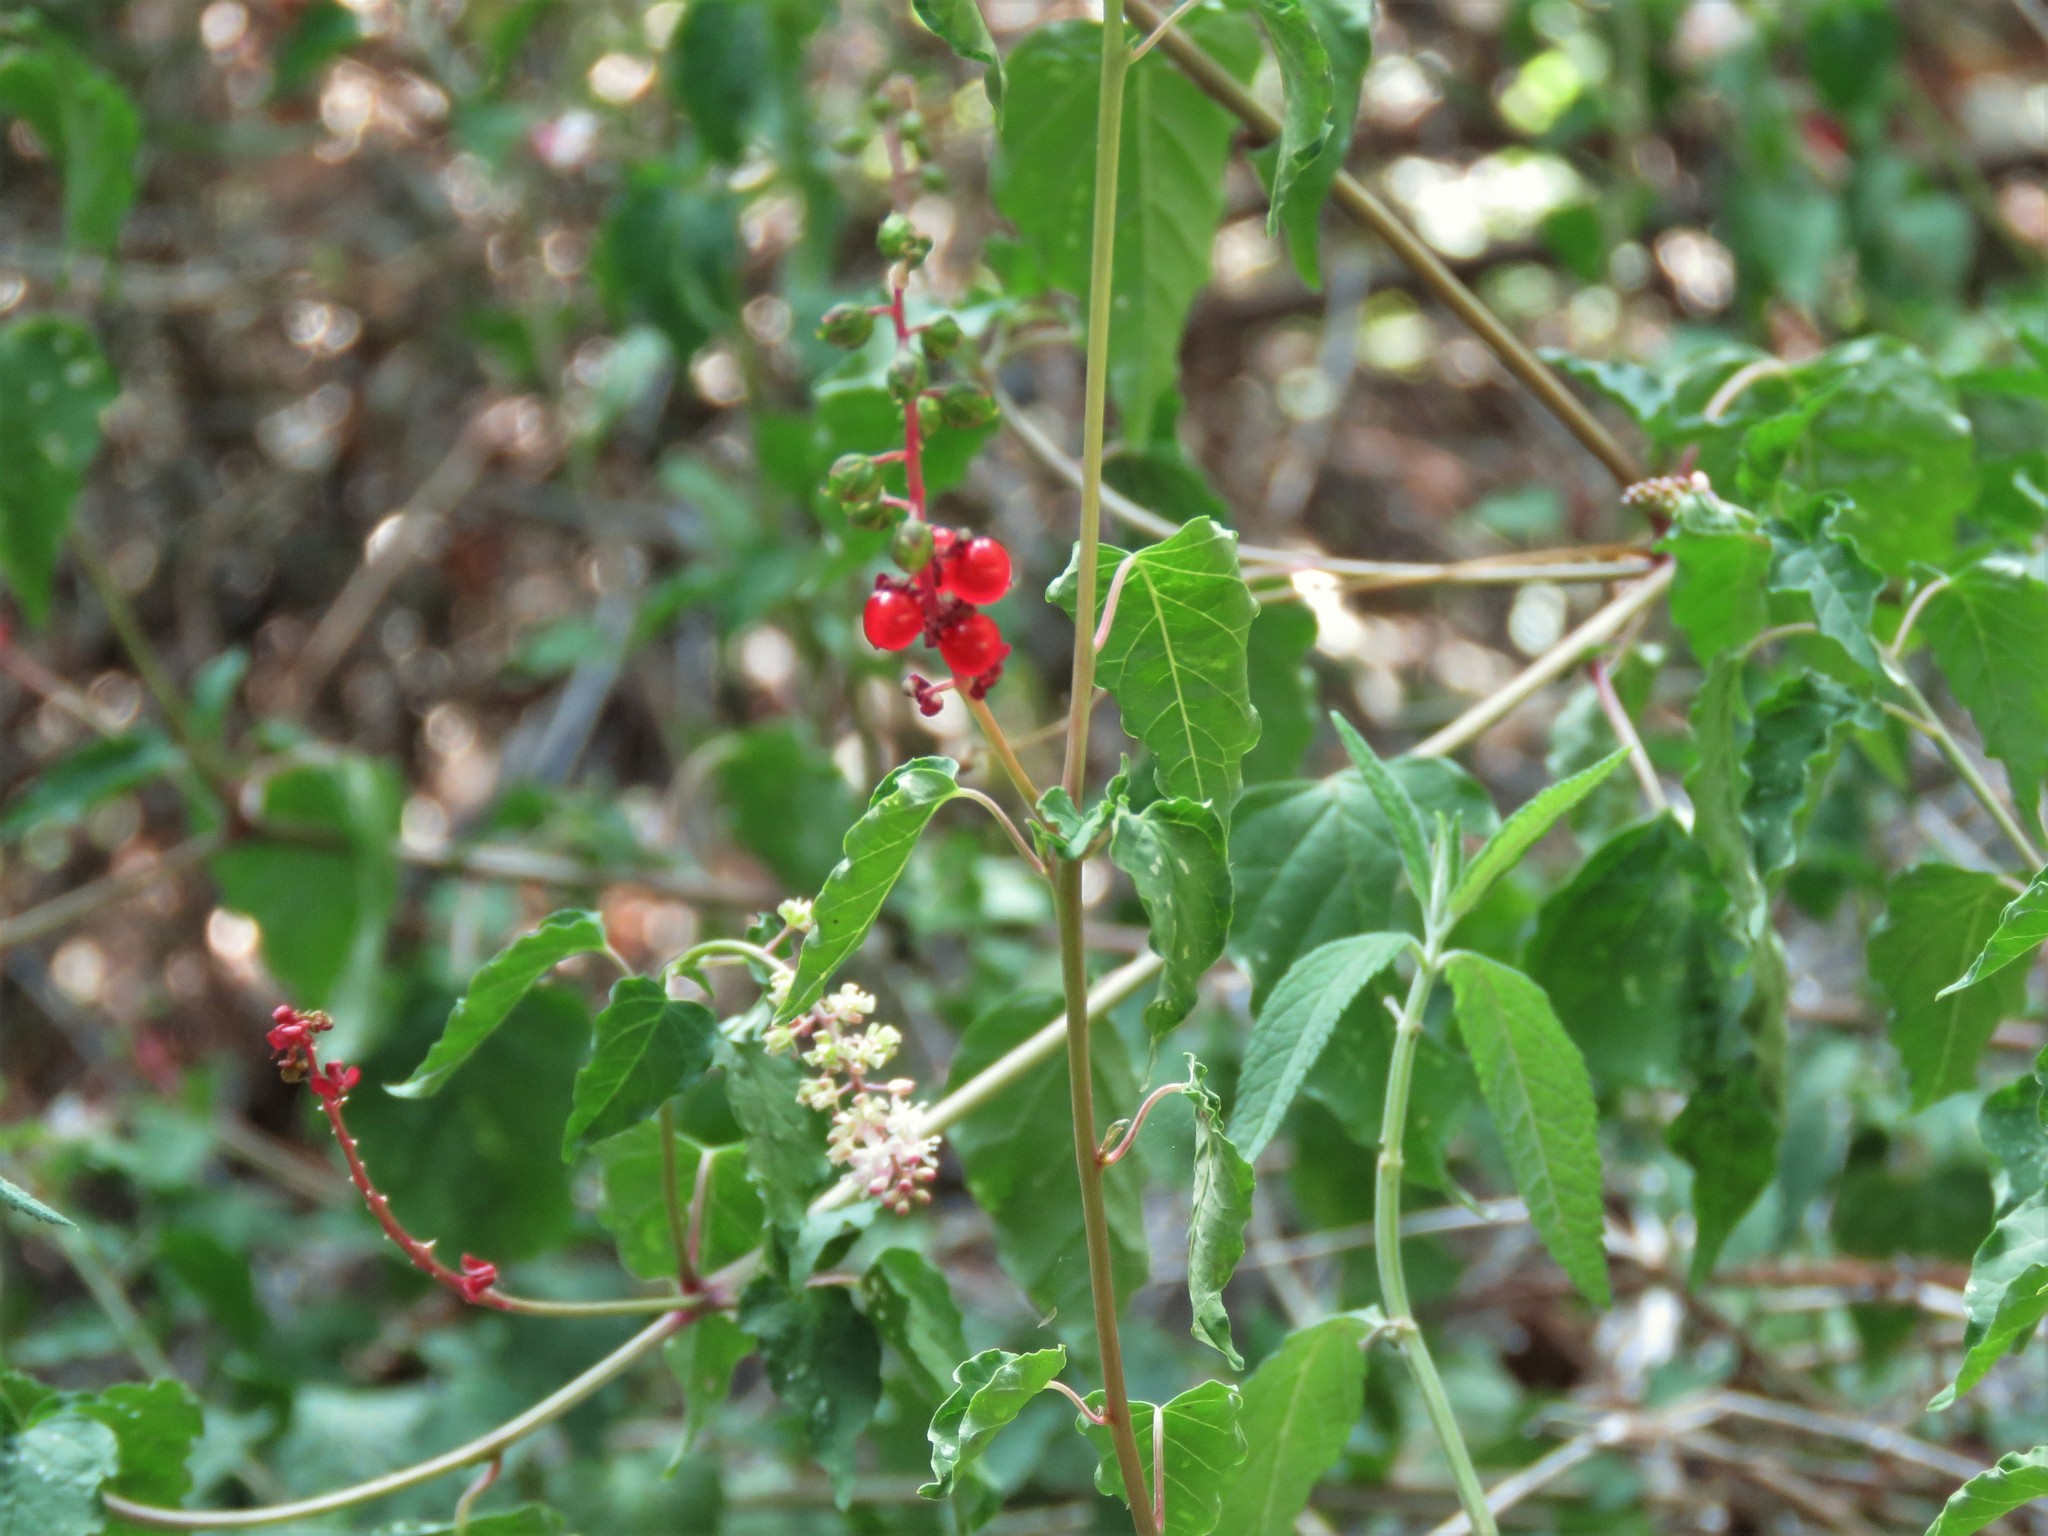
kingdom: Plantae
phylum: Tracheophyta
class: Magnoliopsida
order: Caryophyllales
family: Phytolaccaceae
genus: Rivina
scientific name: Rivina humilis
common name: Rougeplant
